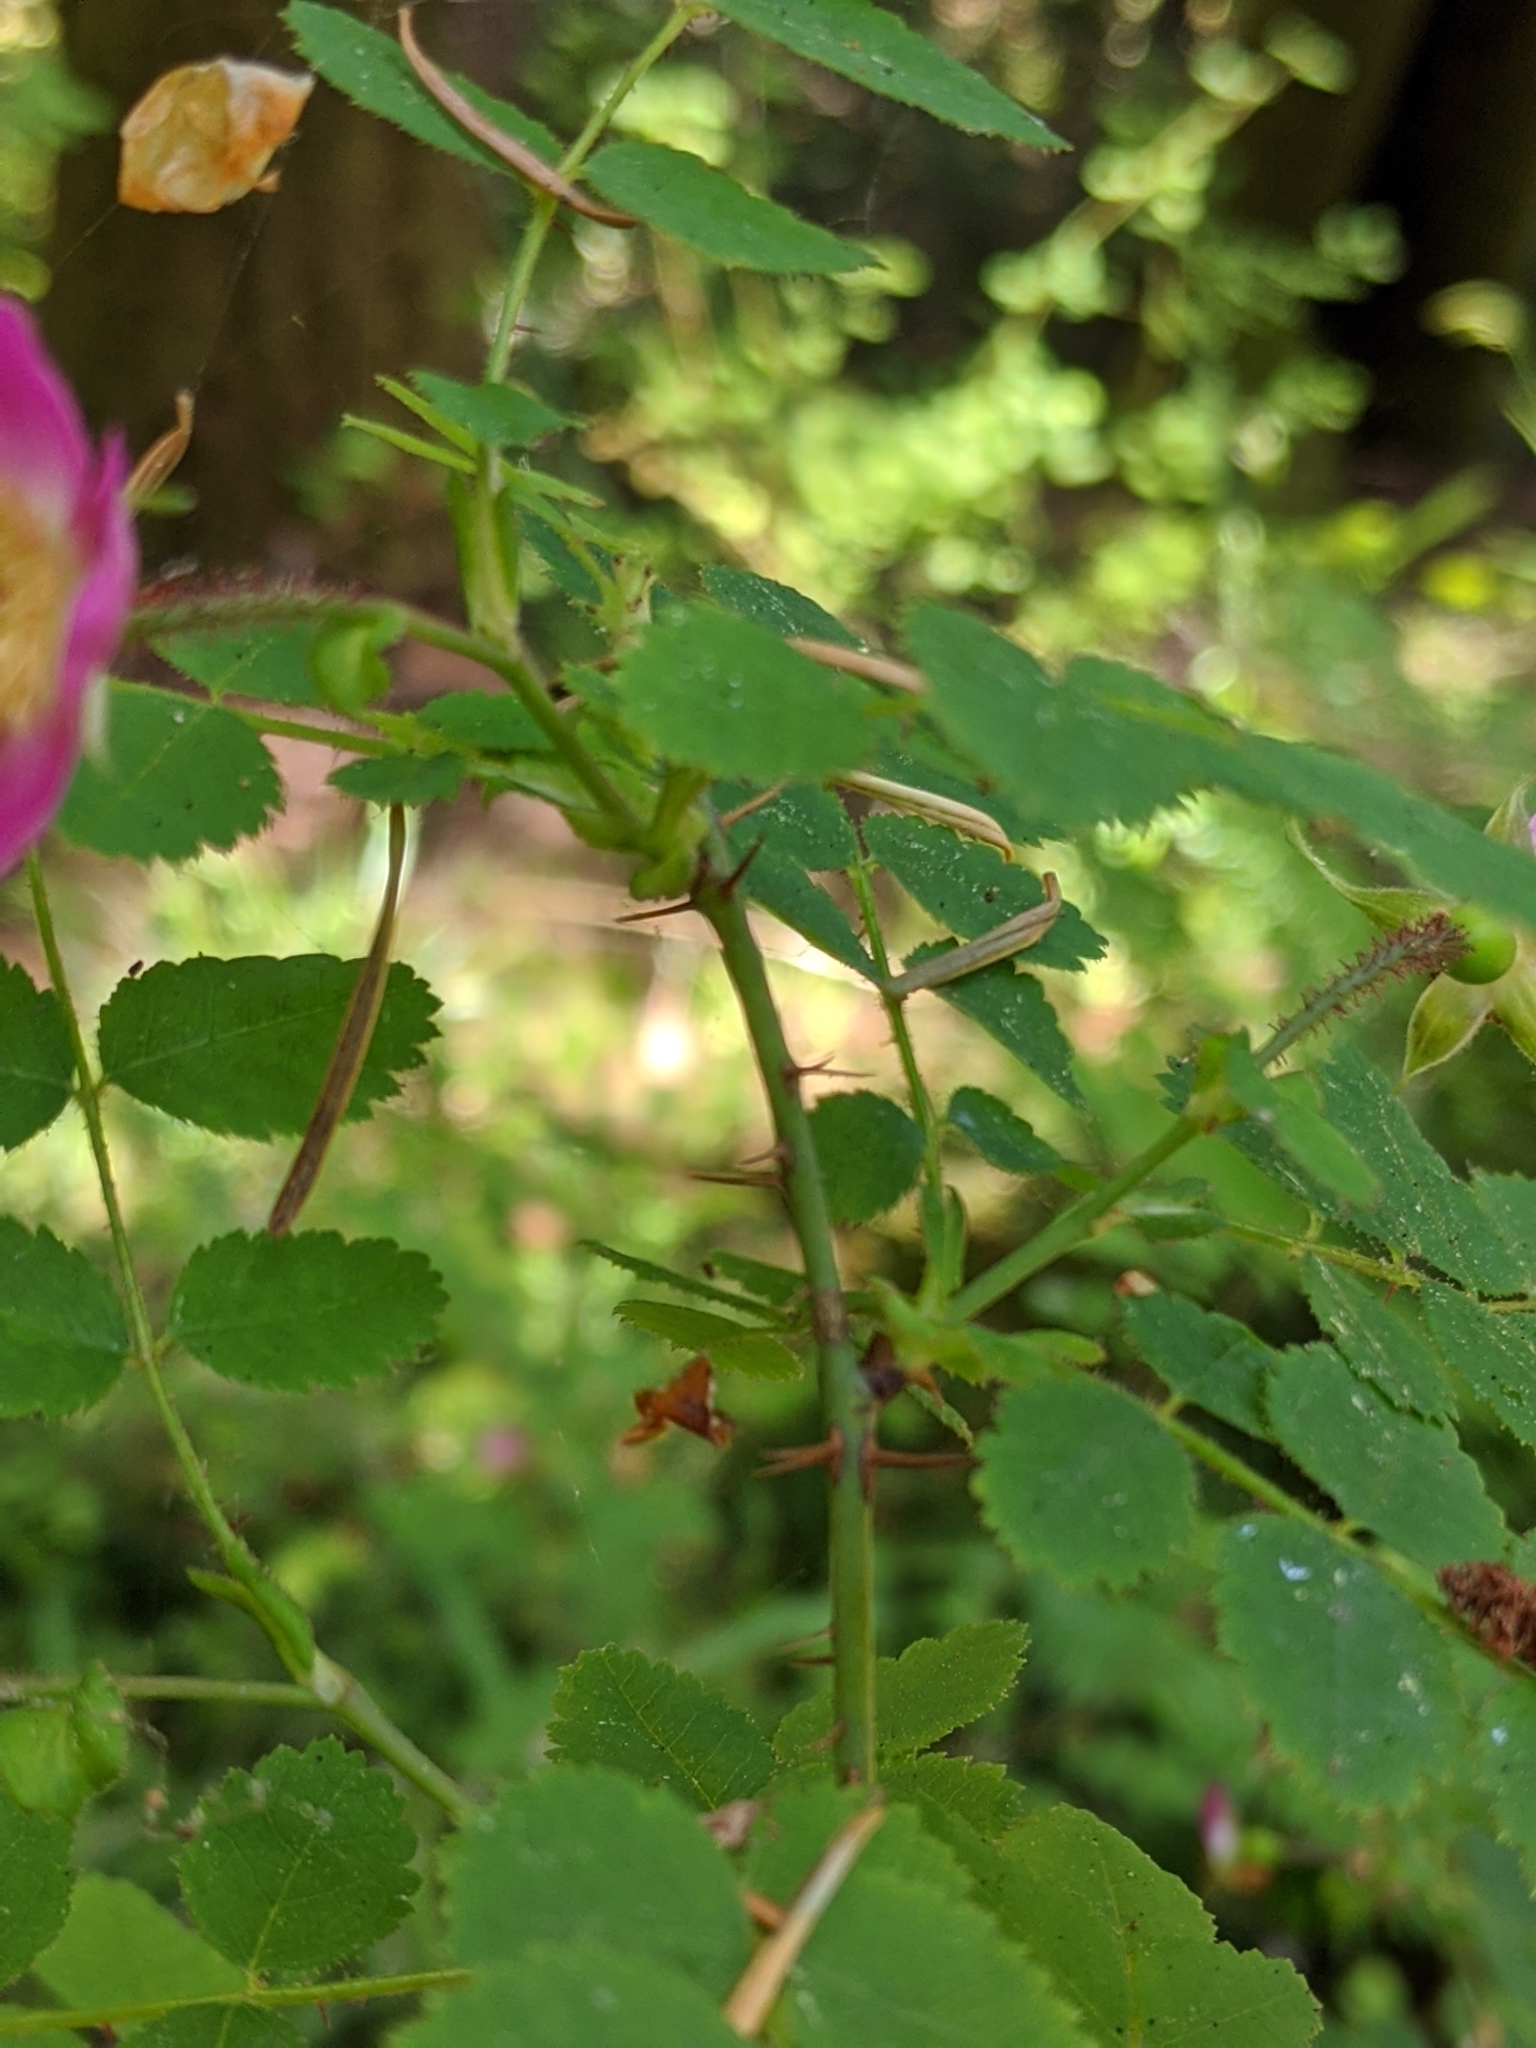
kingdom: Plantae
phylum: Tracheophyta
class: Magnoliopsida
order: Rosales
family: Rosaceae
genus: Rosa
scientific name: Rosa gymnocarpa
